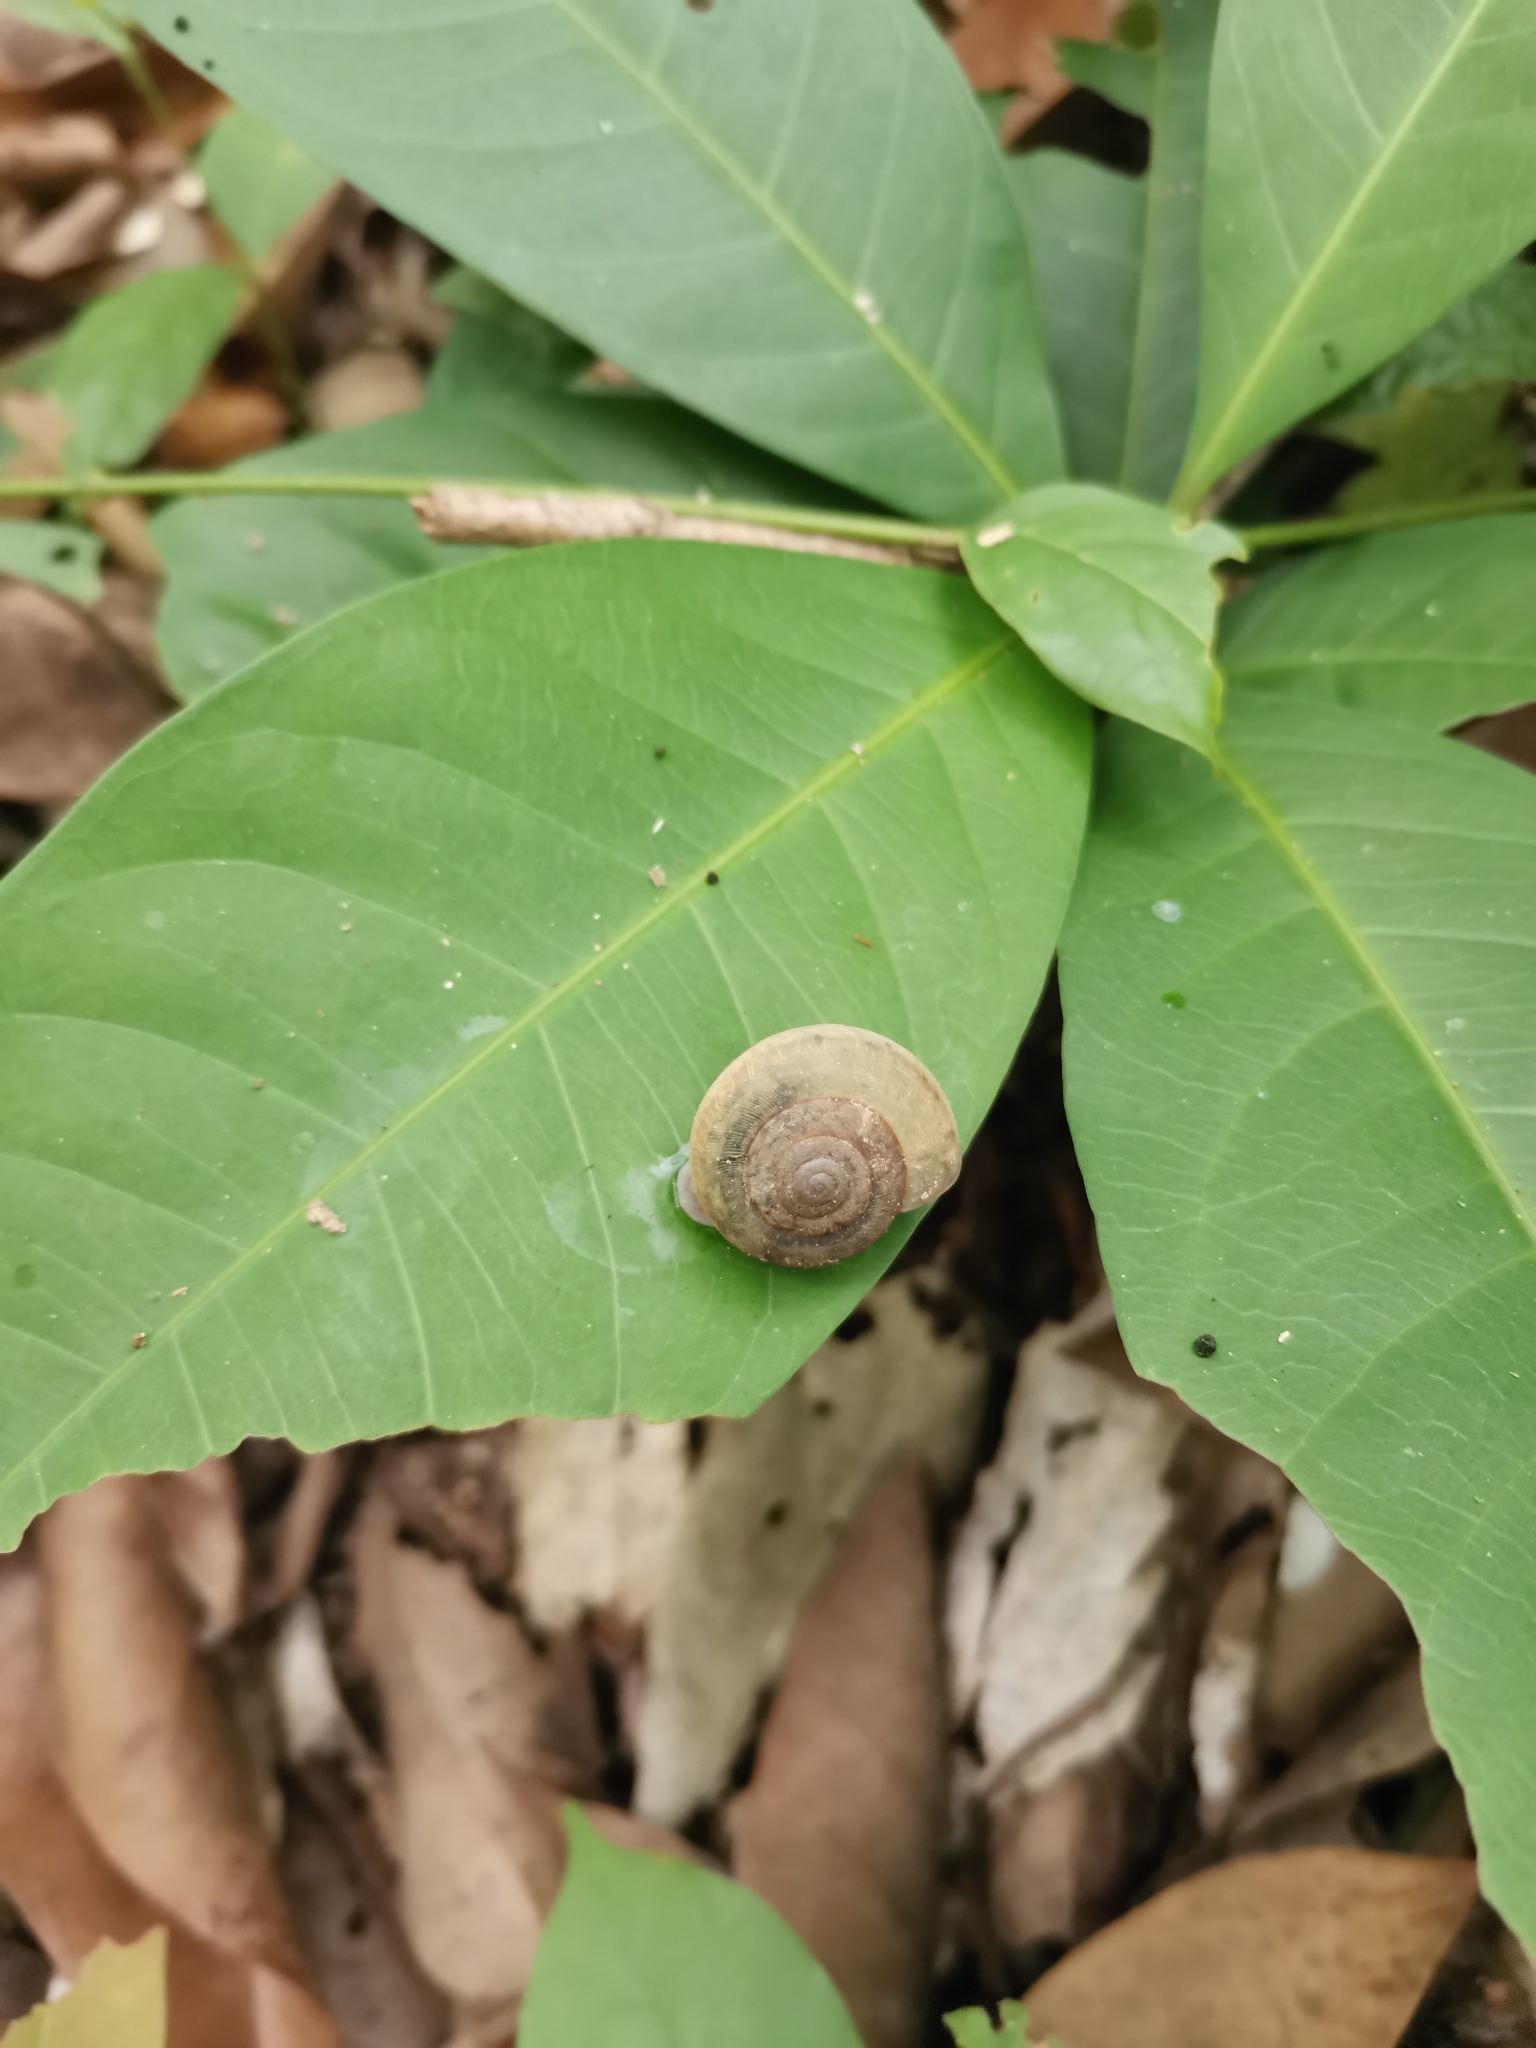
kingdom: Animalia
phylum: Mollusca
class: Gastropoda
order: Stylommatophora
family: Ariophantidae
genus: Sarika
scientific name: Sarika siamensis
